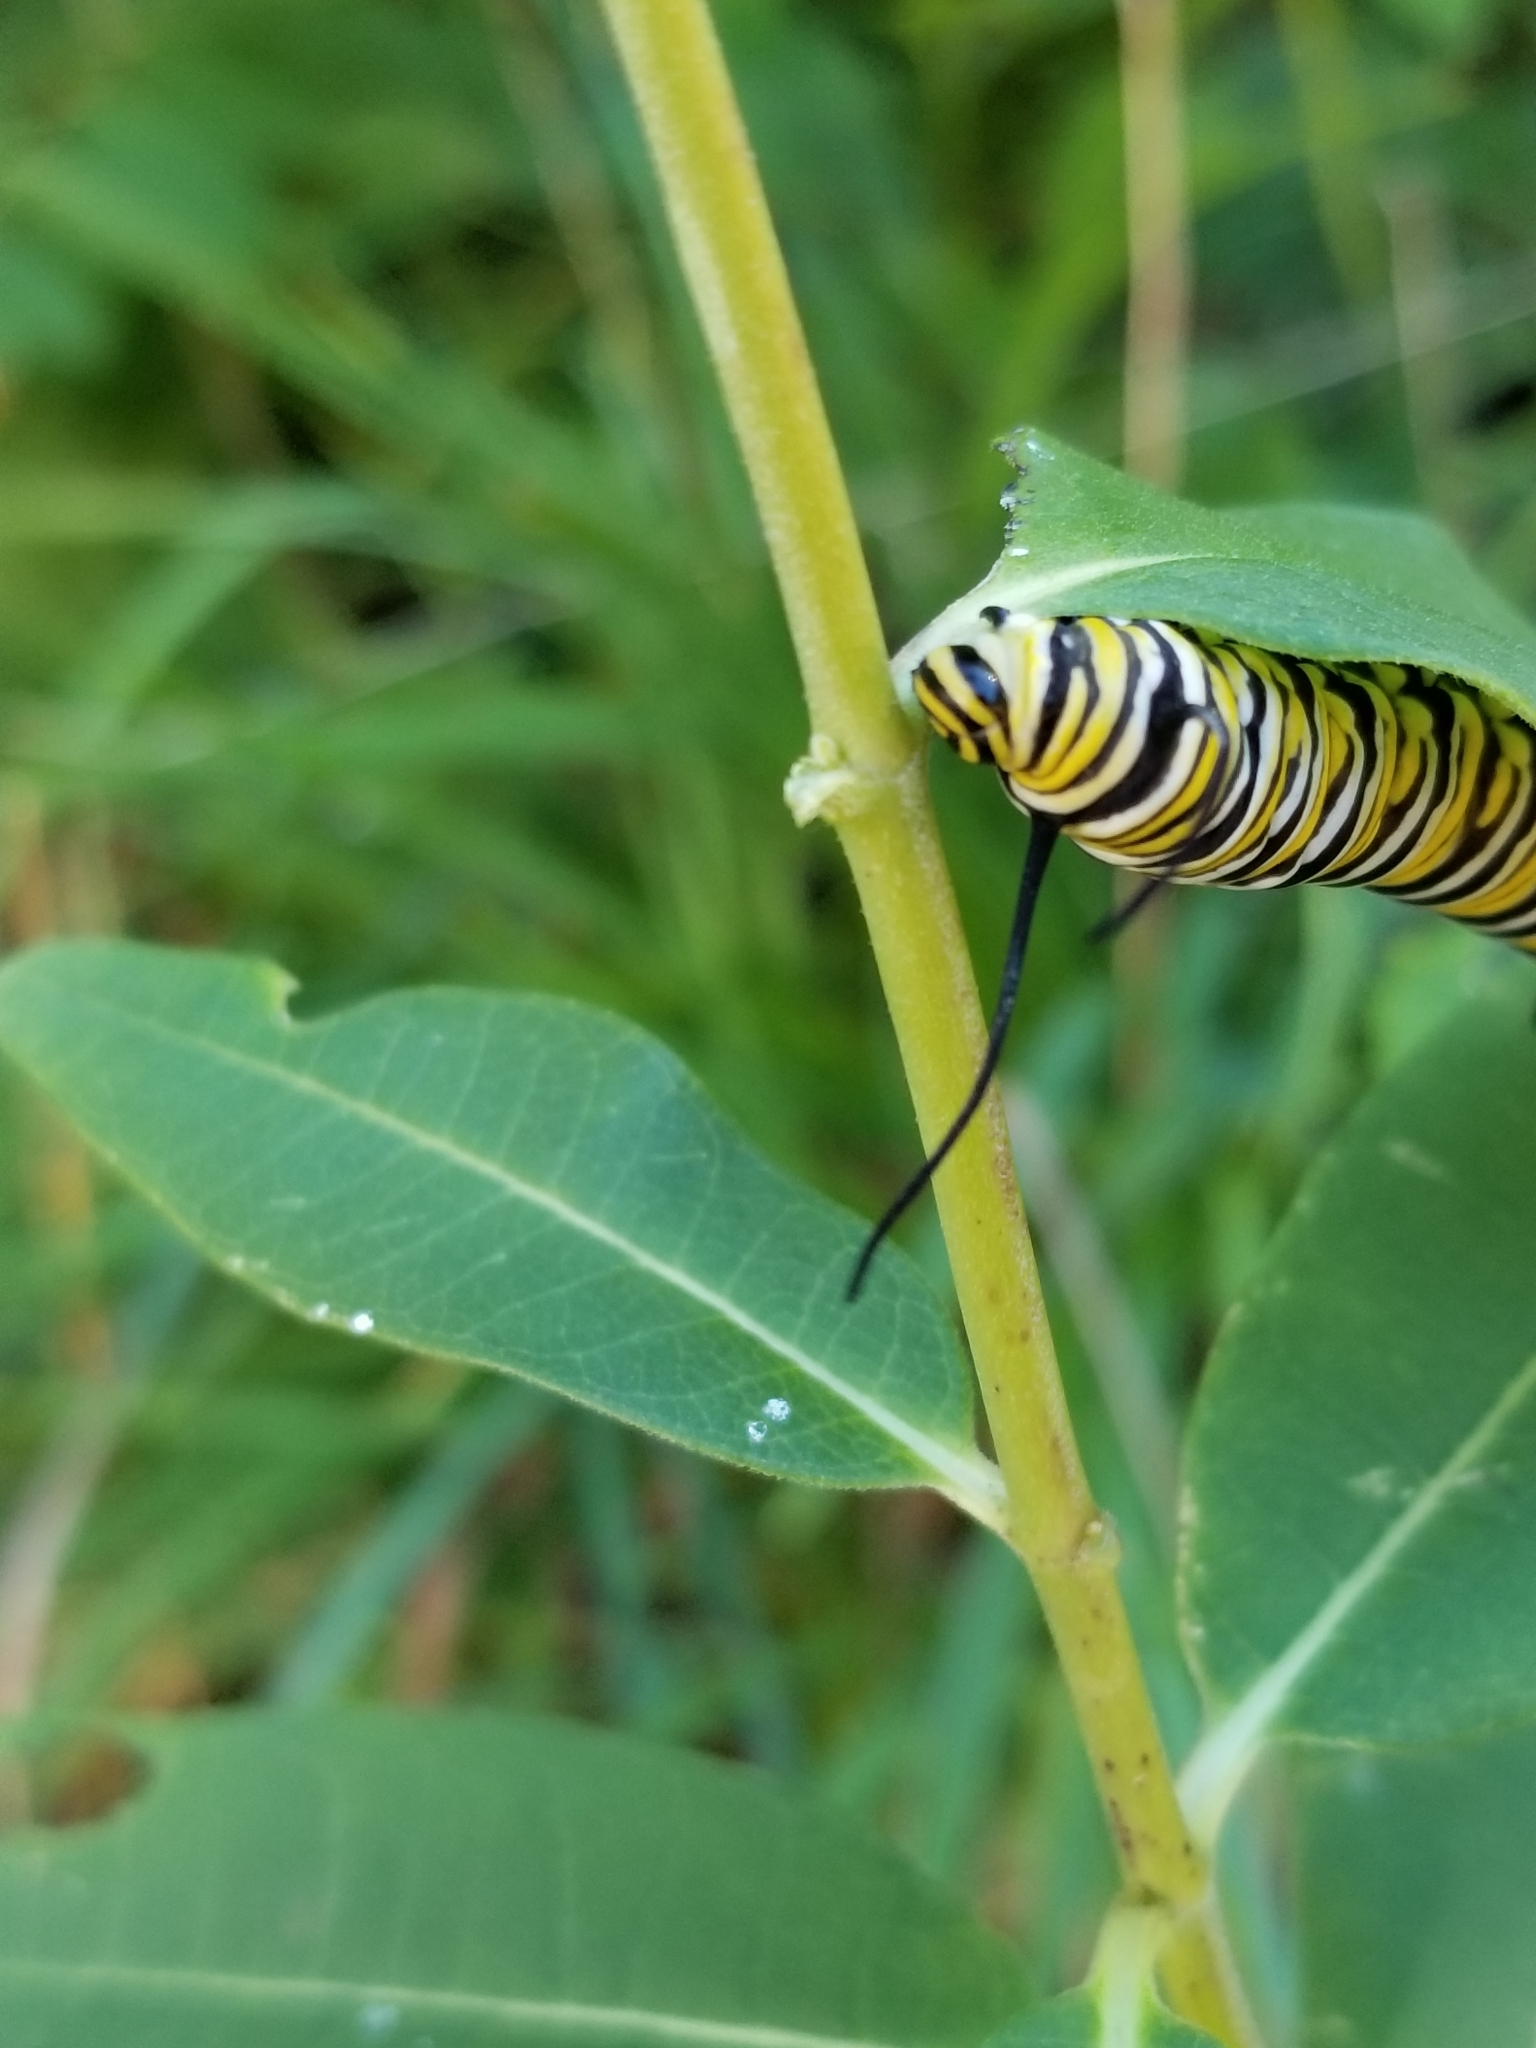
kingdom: Animalia
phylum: Arthropoda
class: Insecta
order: Lepidoptera
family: Nymphalidae
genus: Danaus
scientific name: Danaus plexippus
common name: Monarch
